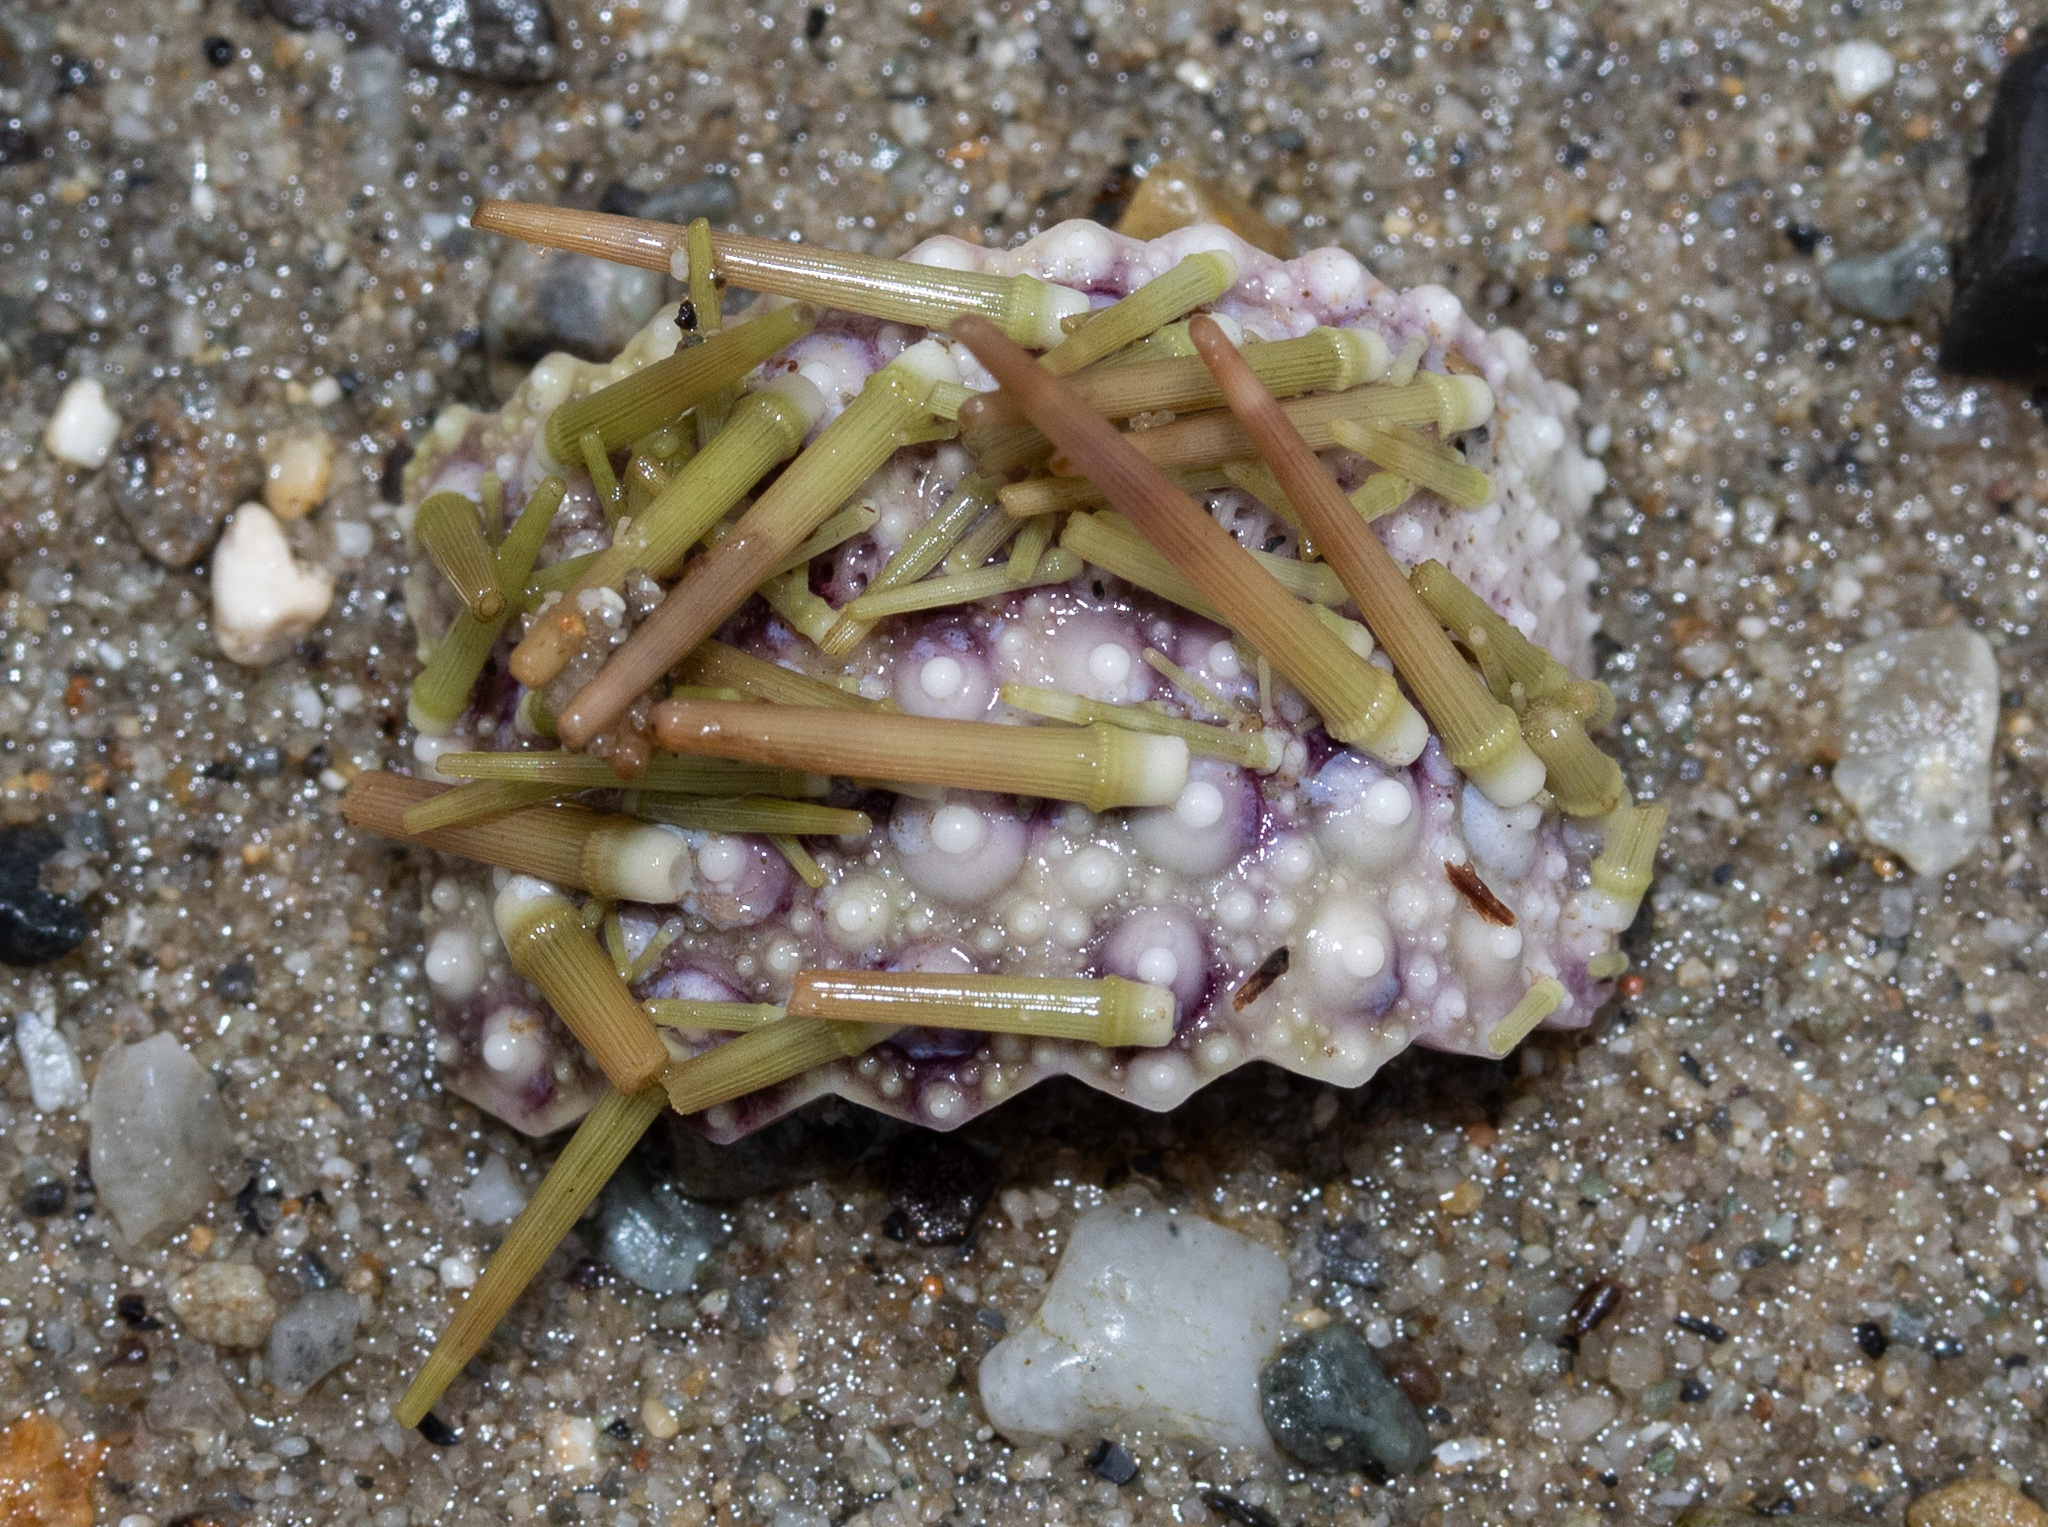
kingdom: Animalia
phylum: Echinodermata
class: Echinoidea
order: Camarodonta
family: Strongylocentrotidae
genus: Strongylocentrotus
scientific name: Strongylocentrotus droebachiensis
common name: Northern sea urchin
